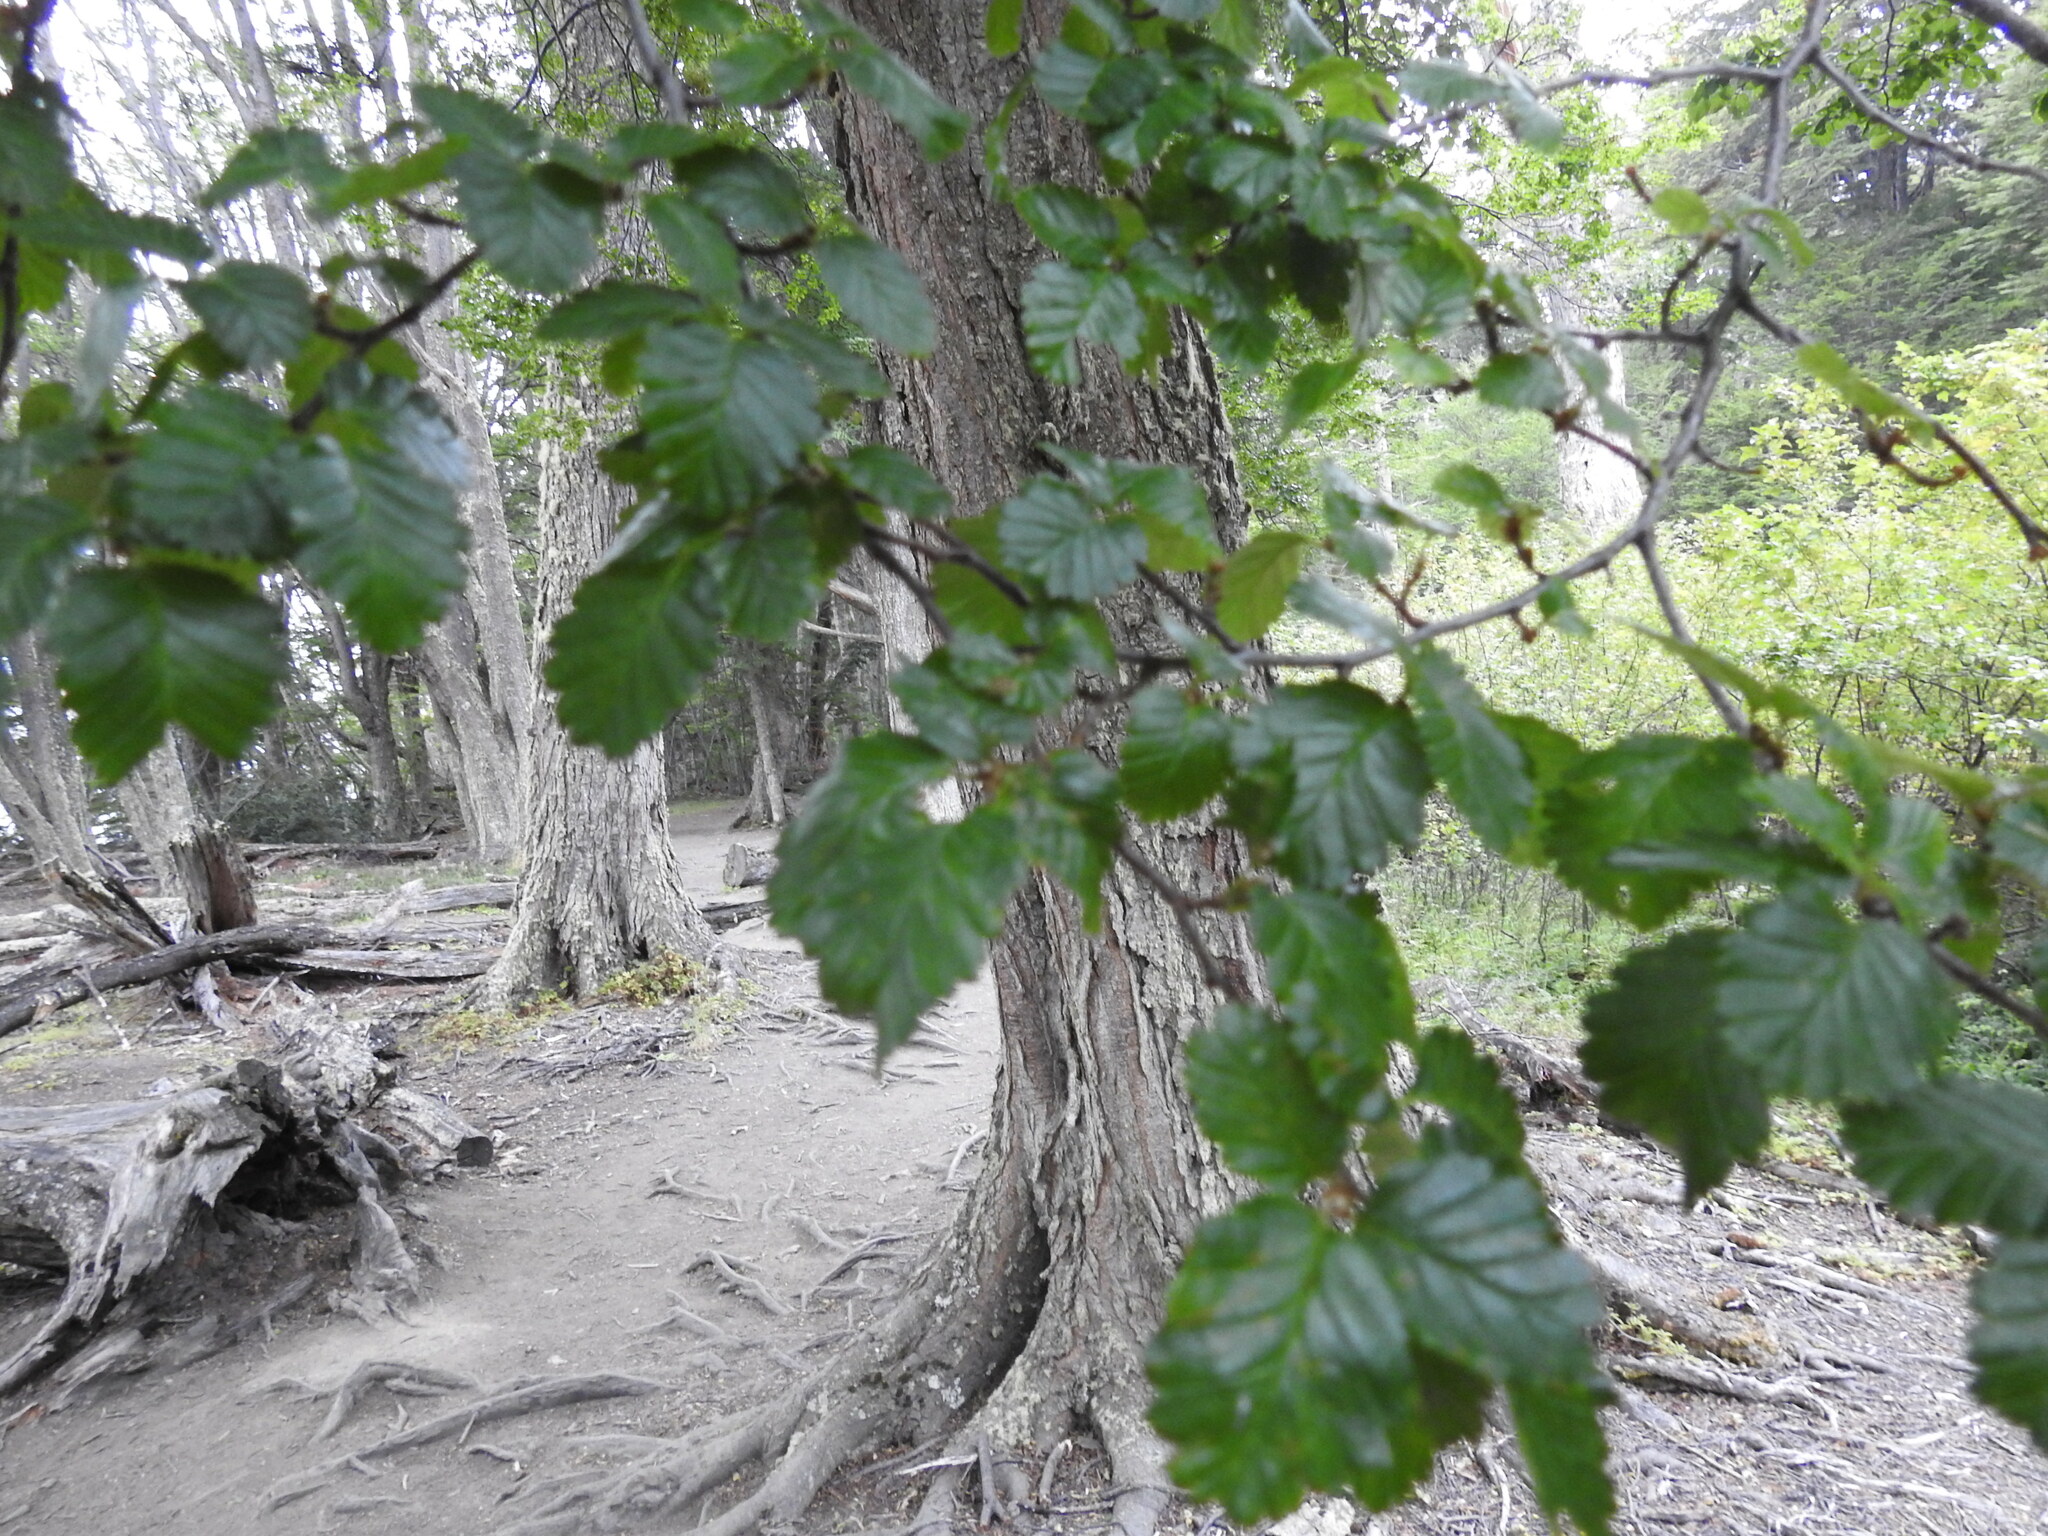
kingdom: Plantae
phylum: Tracheophyta
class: Magnoliopsida
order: Fagales
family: Nothofagaceae
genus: Nothofagus
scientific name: Nothofagus pumilio
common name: Lenga beech
